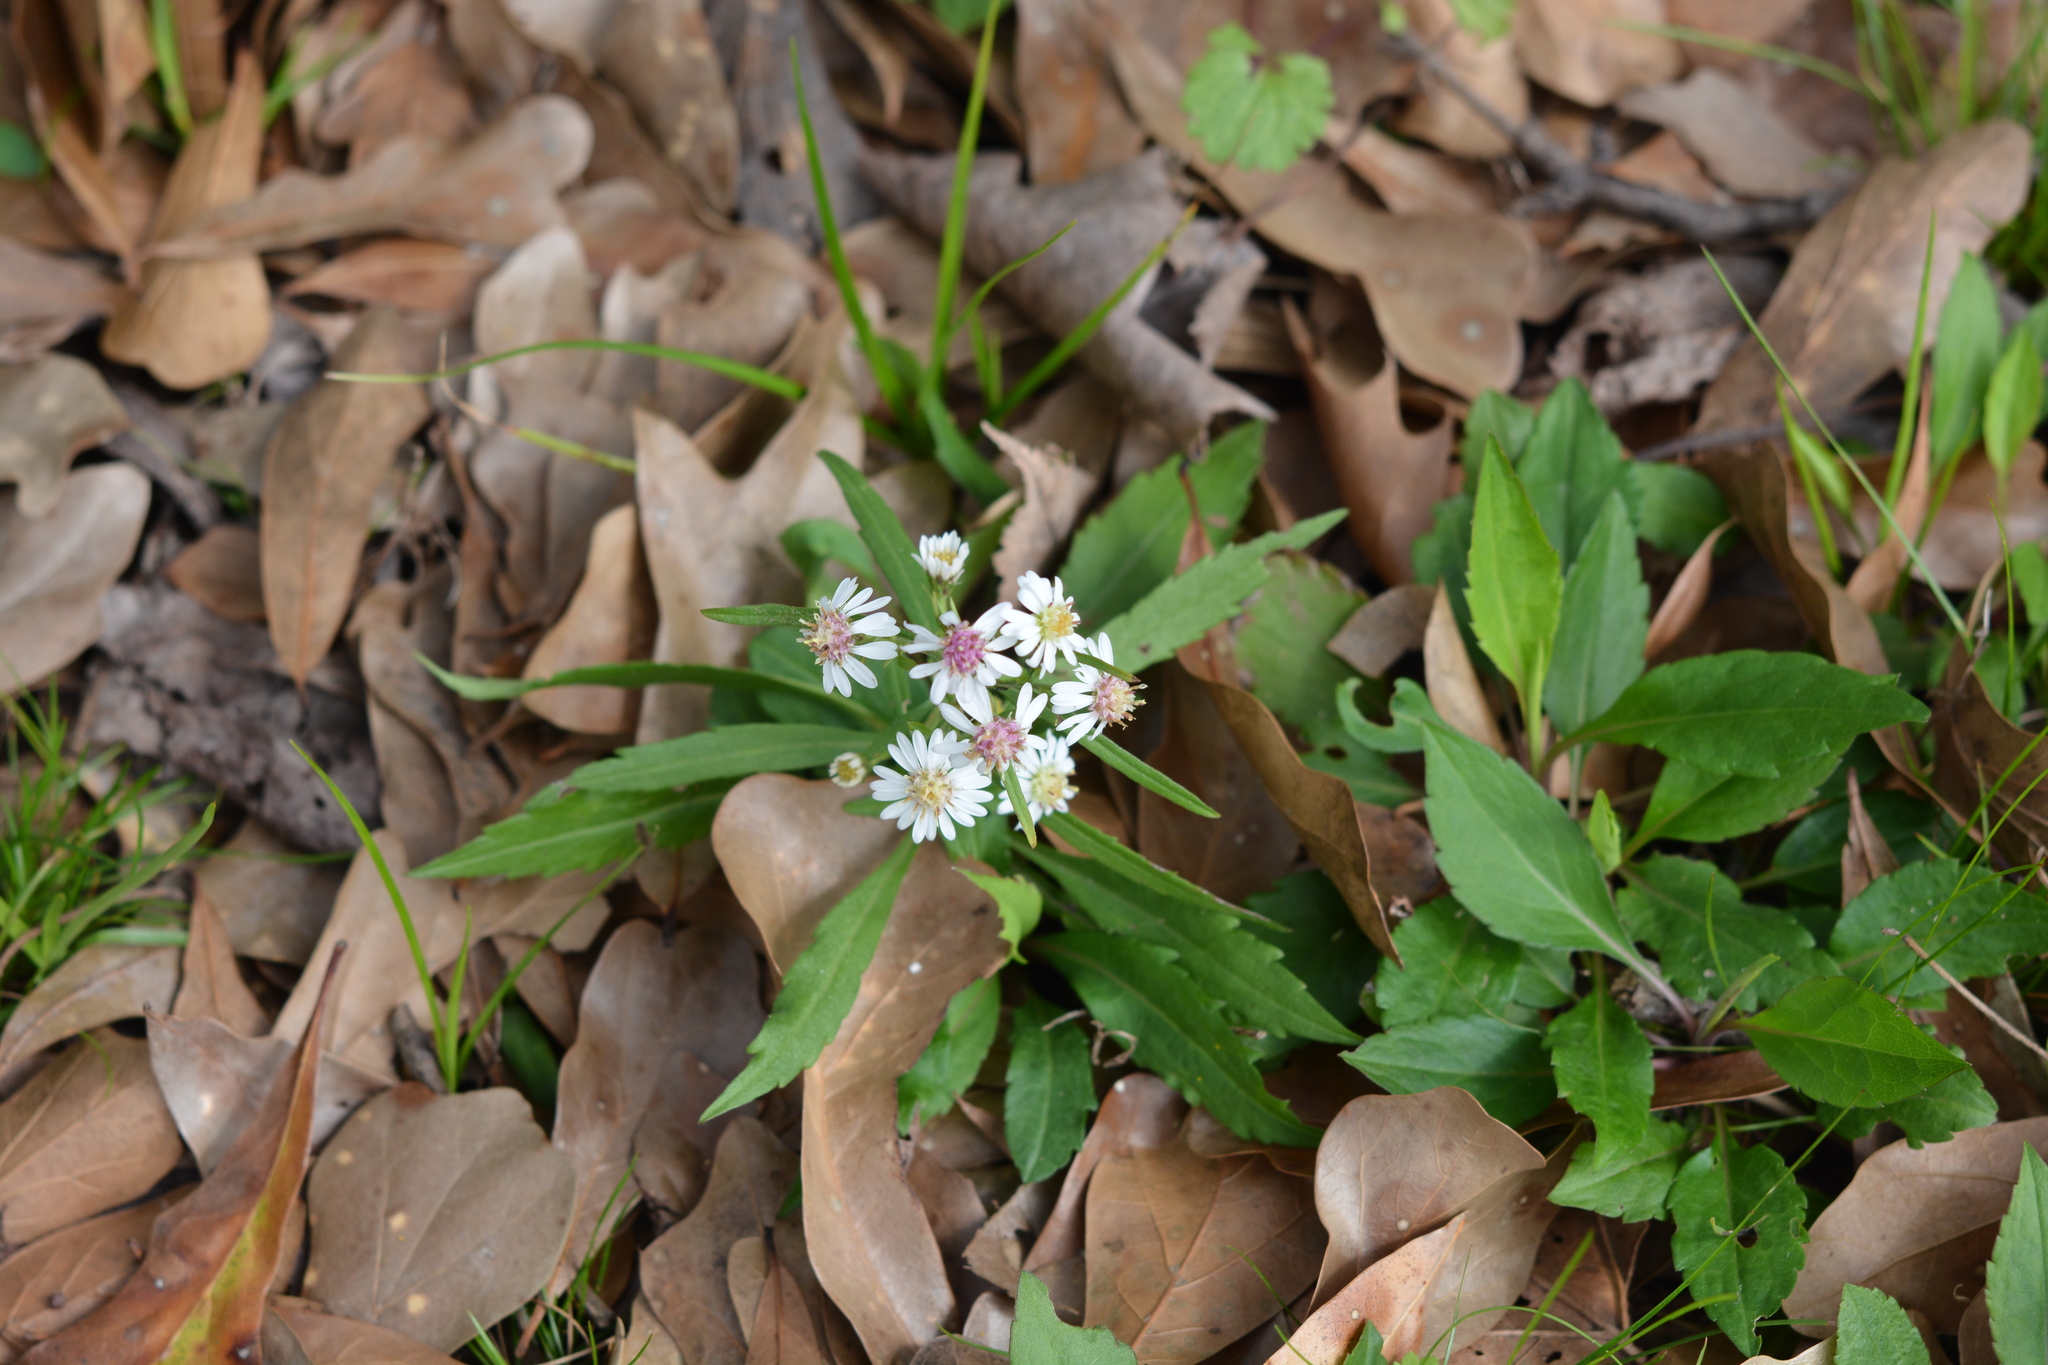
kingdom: Plantae
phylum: Tracheophyta
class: Magnoliopsida
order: Asterales
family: Asteraceae
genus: Symphyotrichum
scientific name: Symphyotrichum lateriflorum
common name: Calico aster
